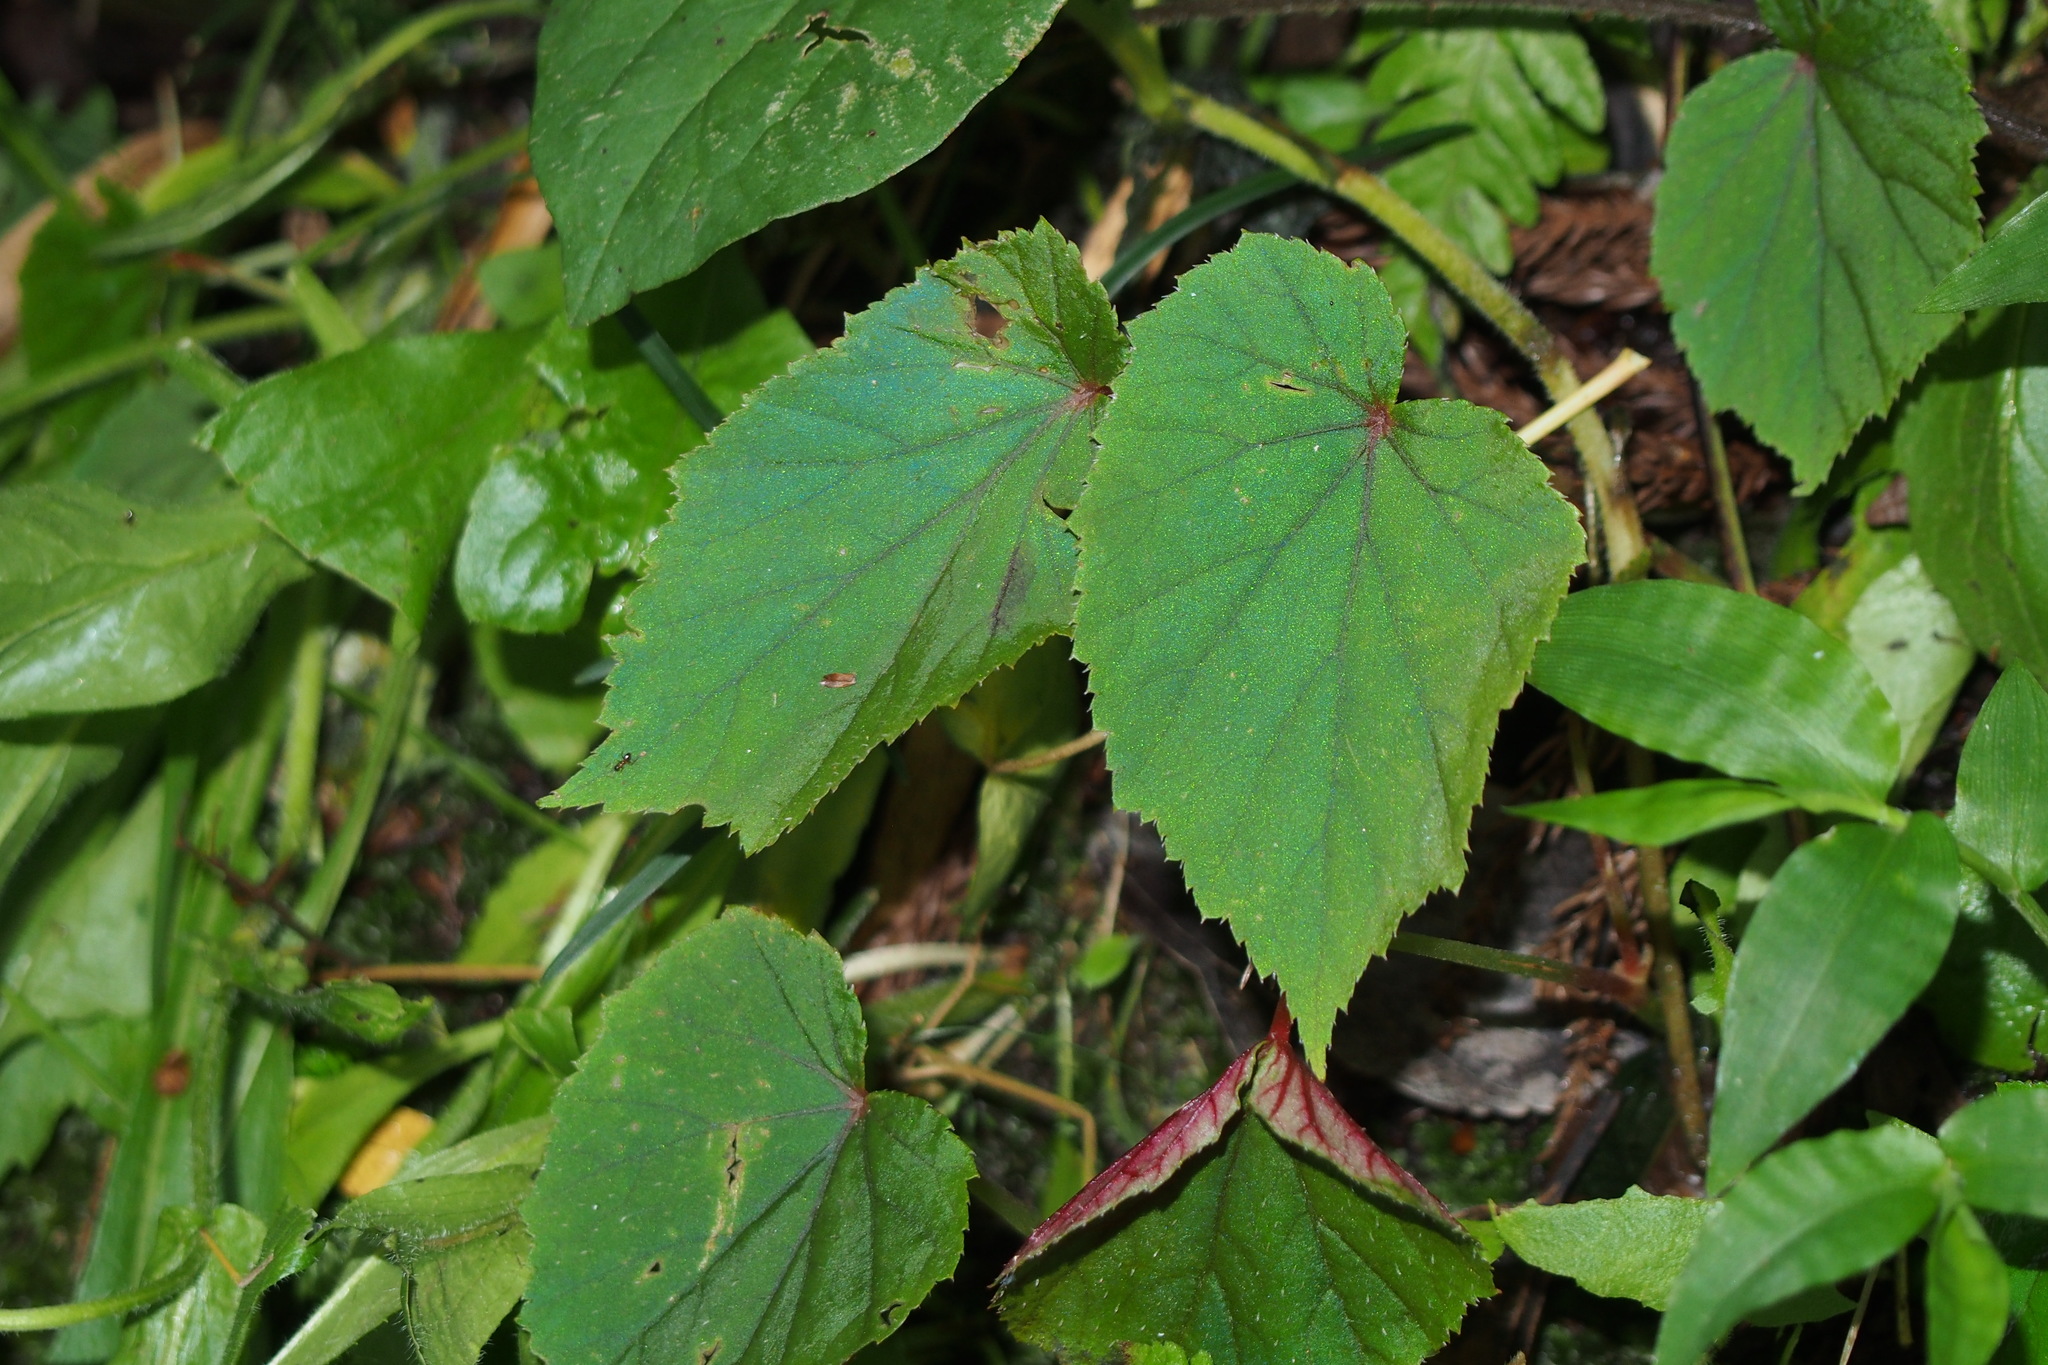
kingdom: Plantae
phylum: Tracheophyta
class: Magnoliopsida
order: Cucurbitales
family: Begoniaceae
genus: Begonia
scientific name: Begonia grandis
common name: Hardy begonia
